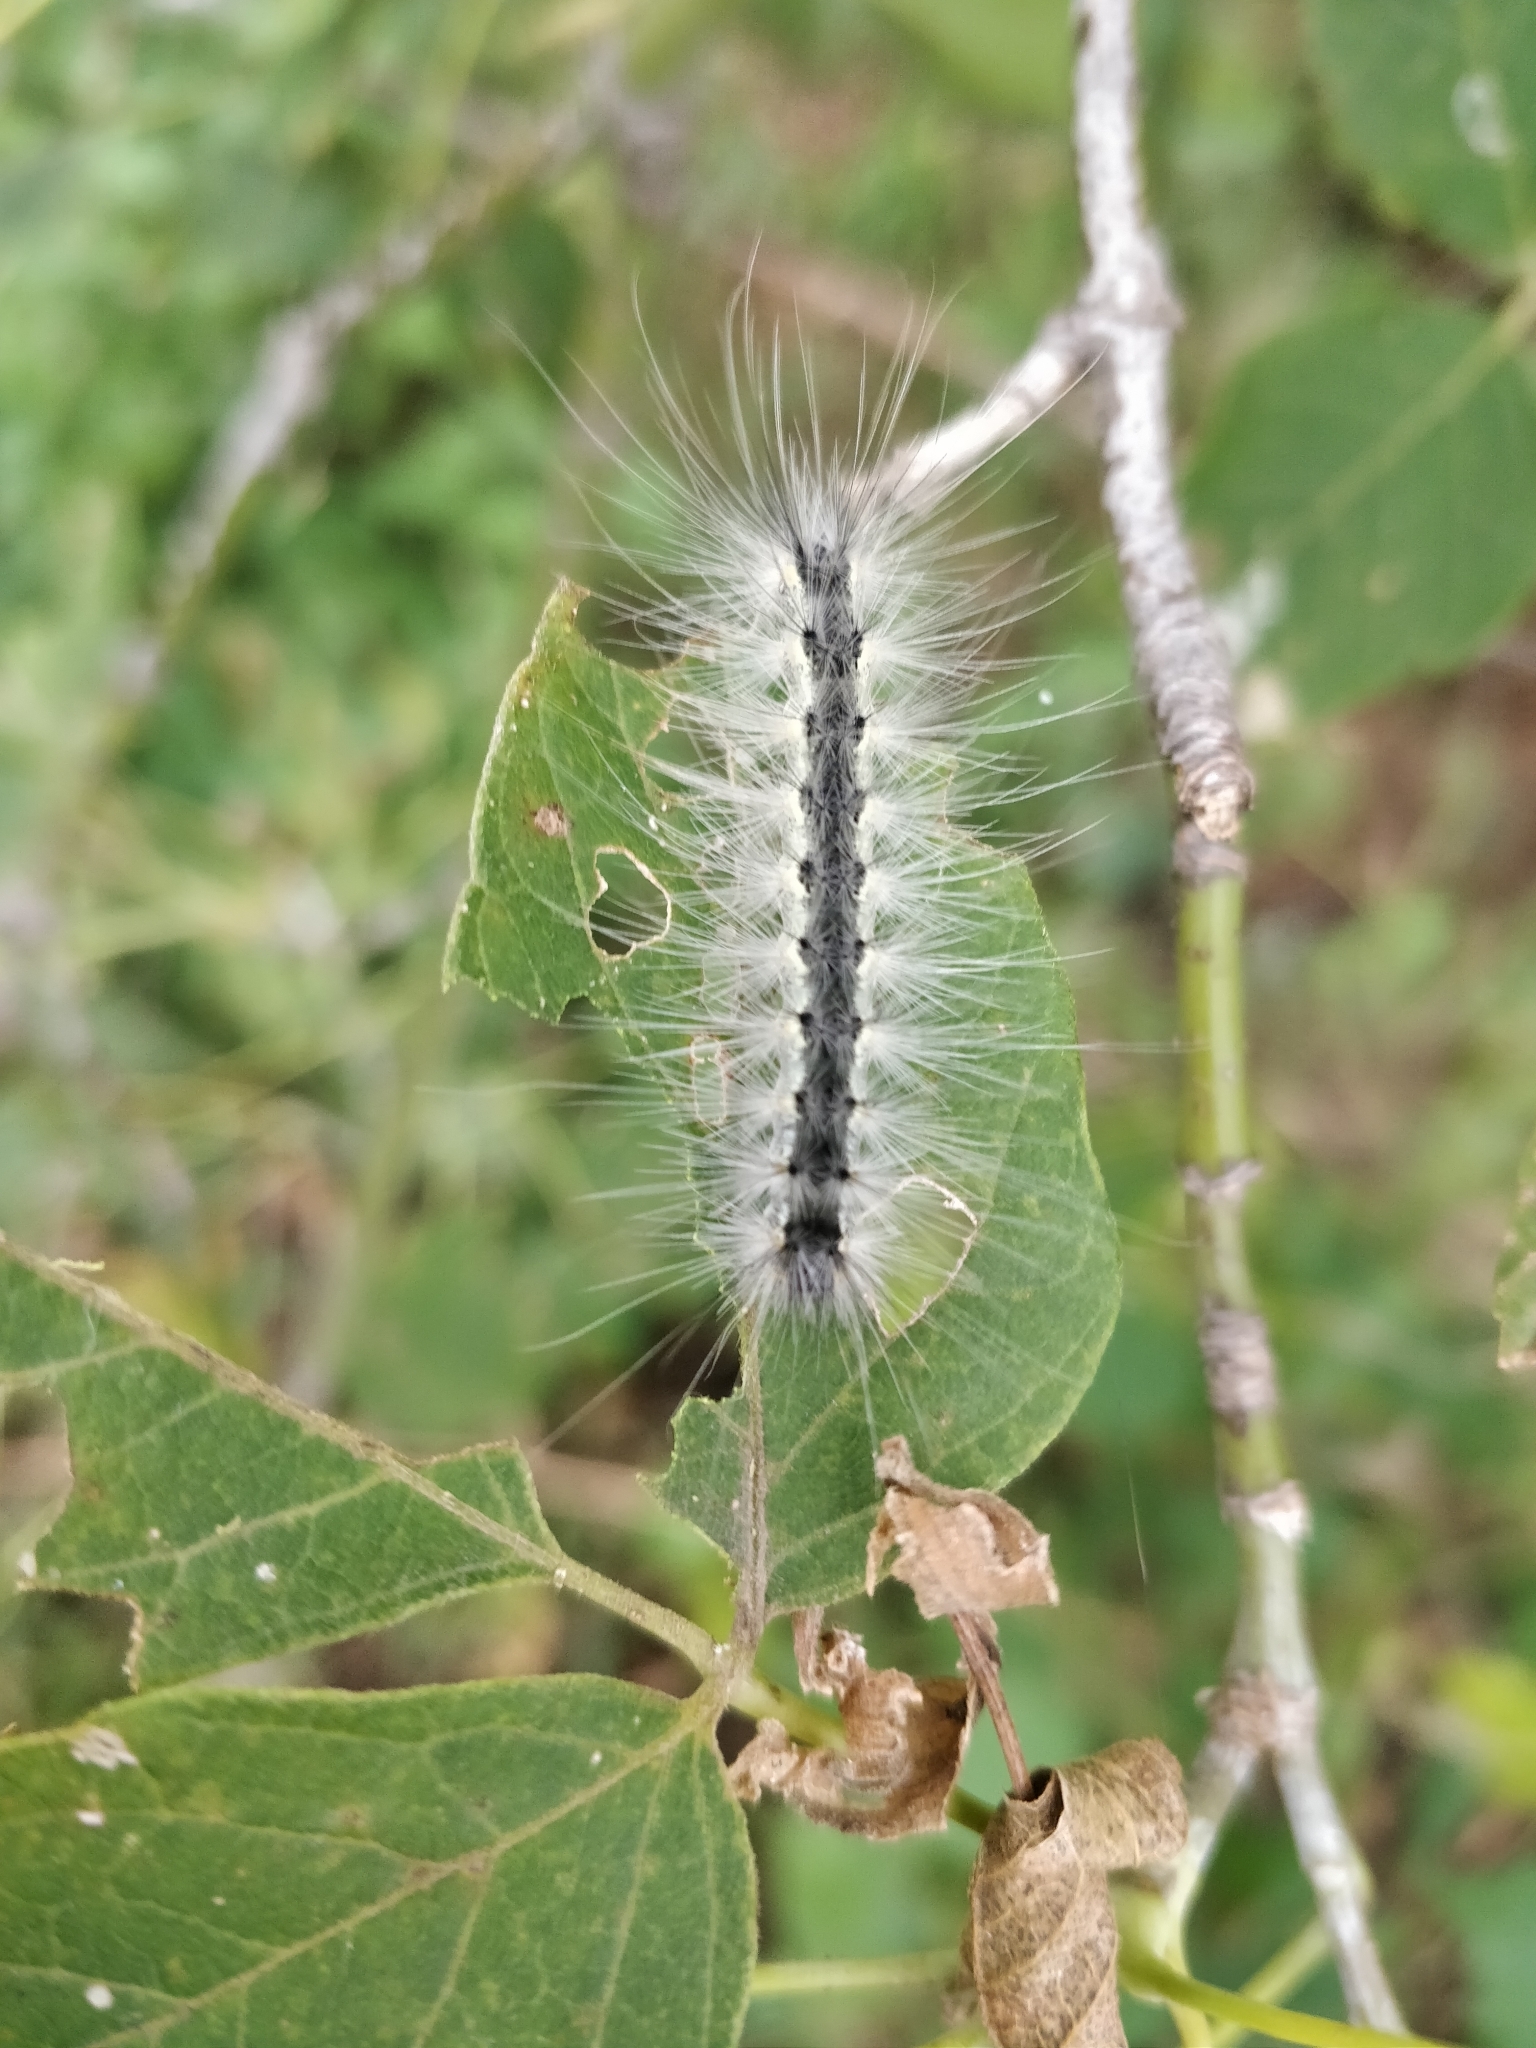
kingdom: Animalia
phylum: Arthropoda
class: Insecta
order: Lepidoptera
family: Erebidae
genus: Hyphantria
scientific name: Hyphantria cunea
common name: American white moth
